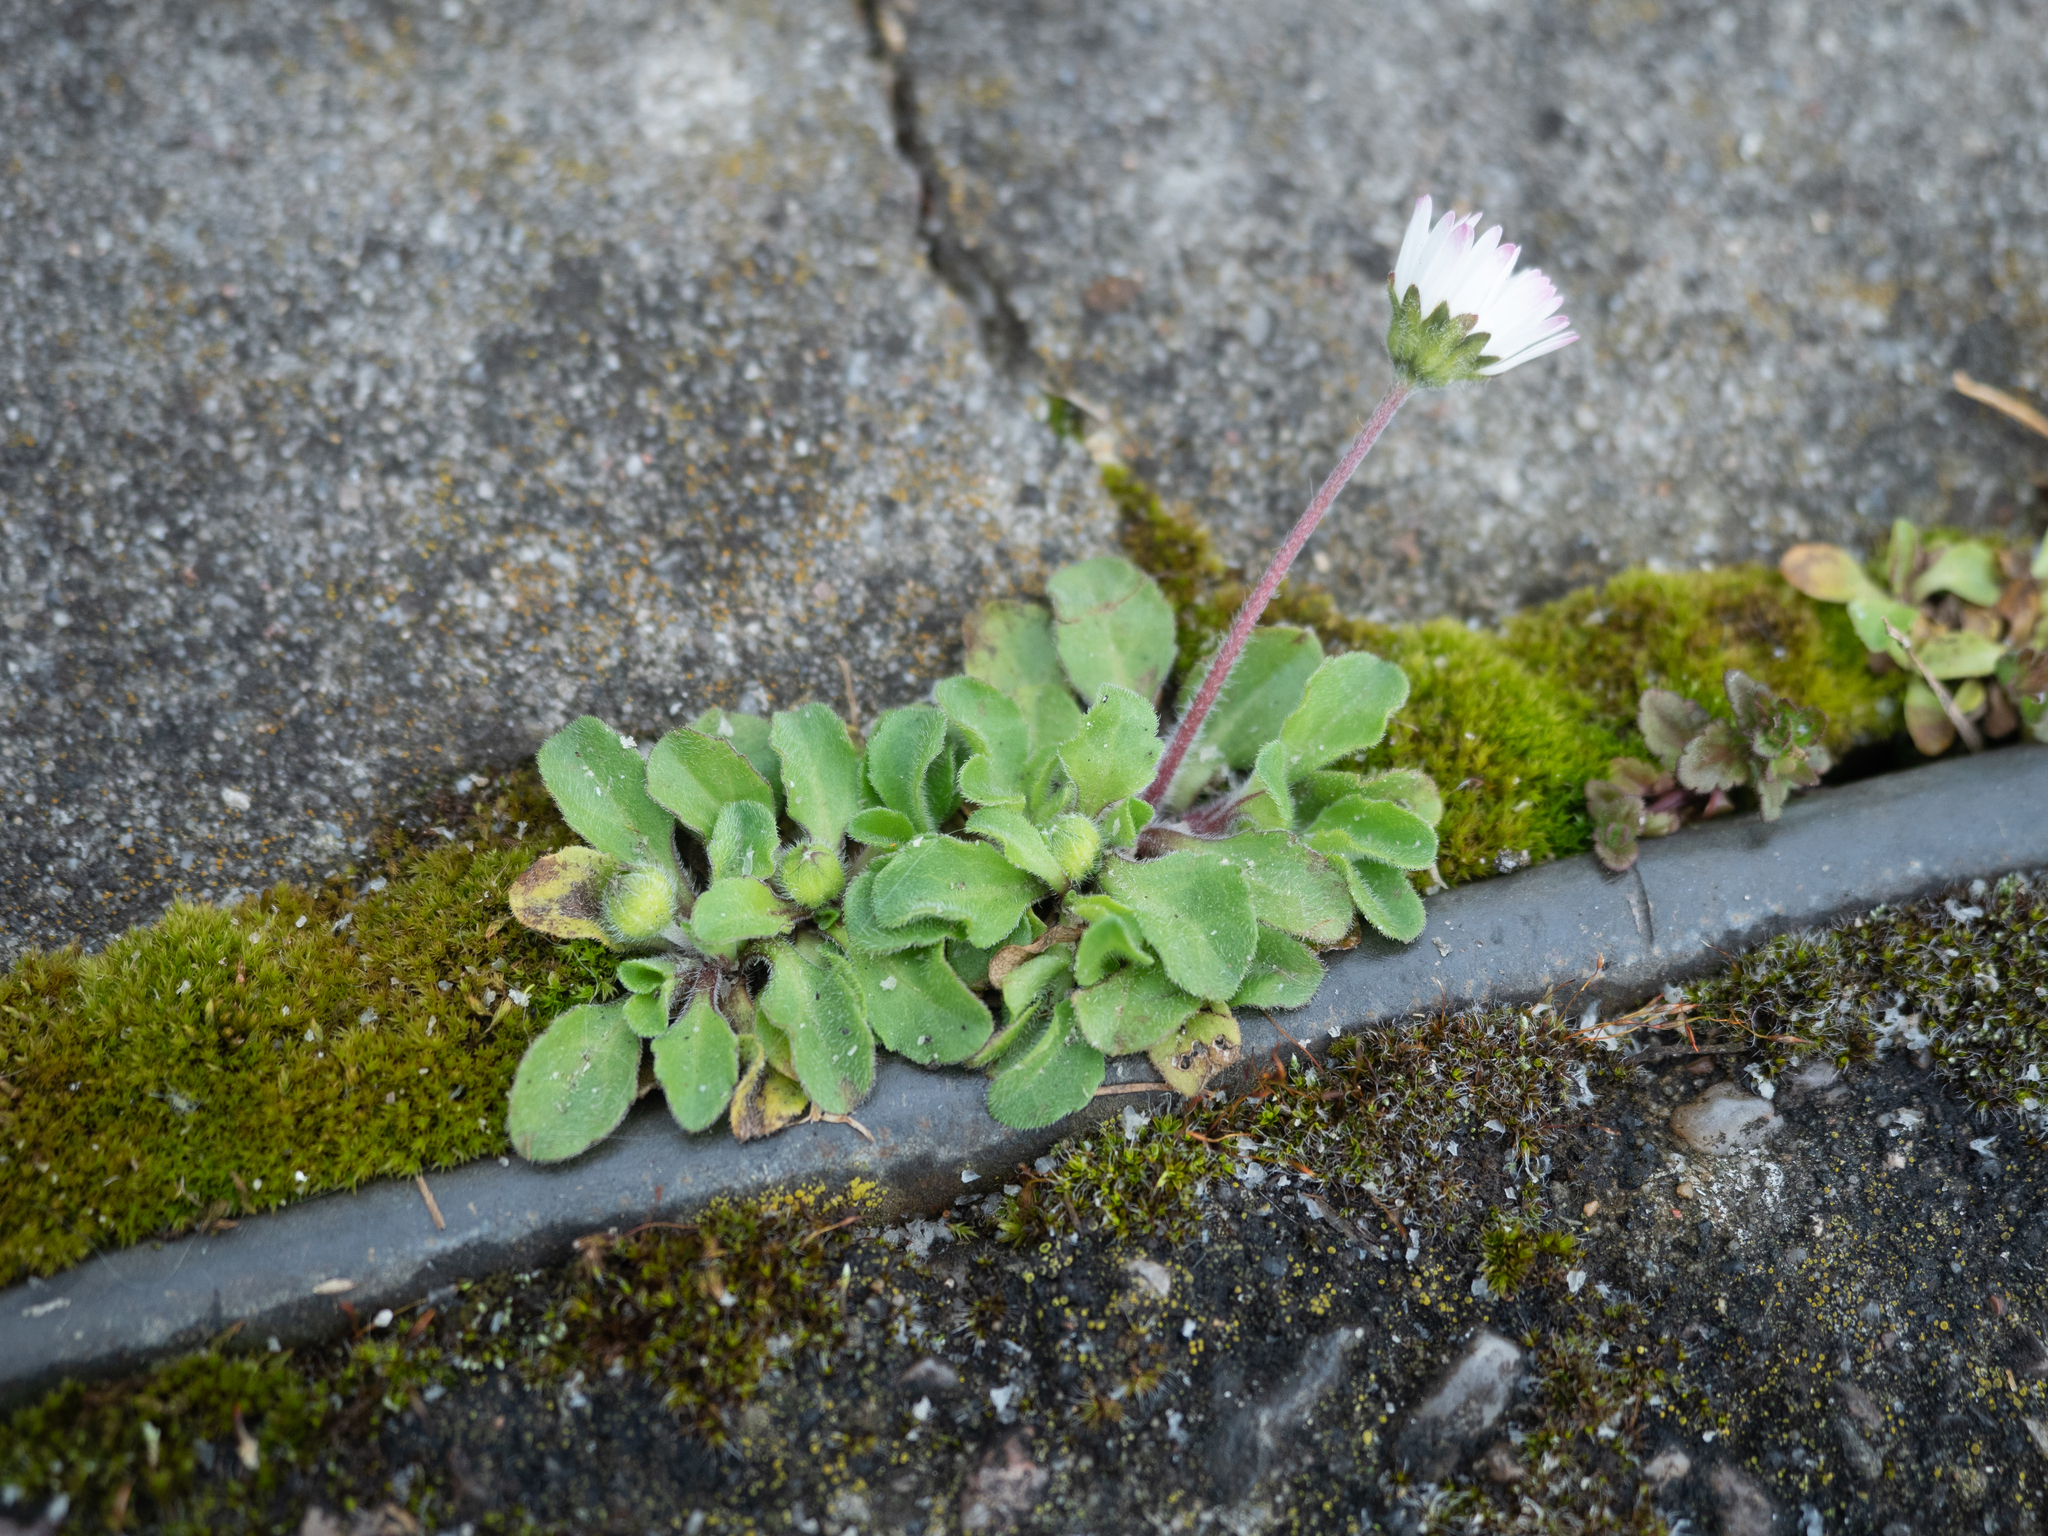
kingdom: Plantae
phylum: Tracheophyta
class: Magnoliopsida
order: Asterales
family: Asteraceae
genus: Bellis
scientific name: Bellis perennis
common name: Lawndaisy
